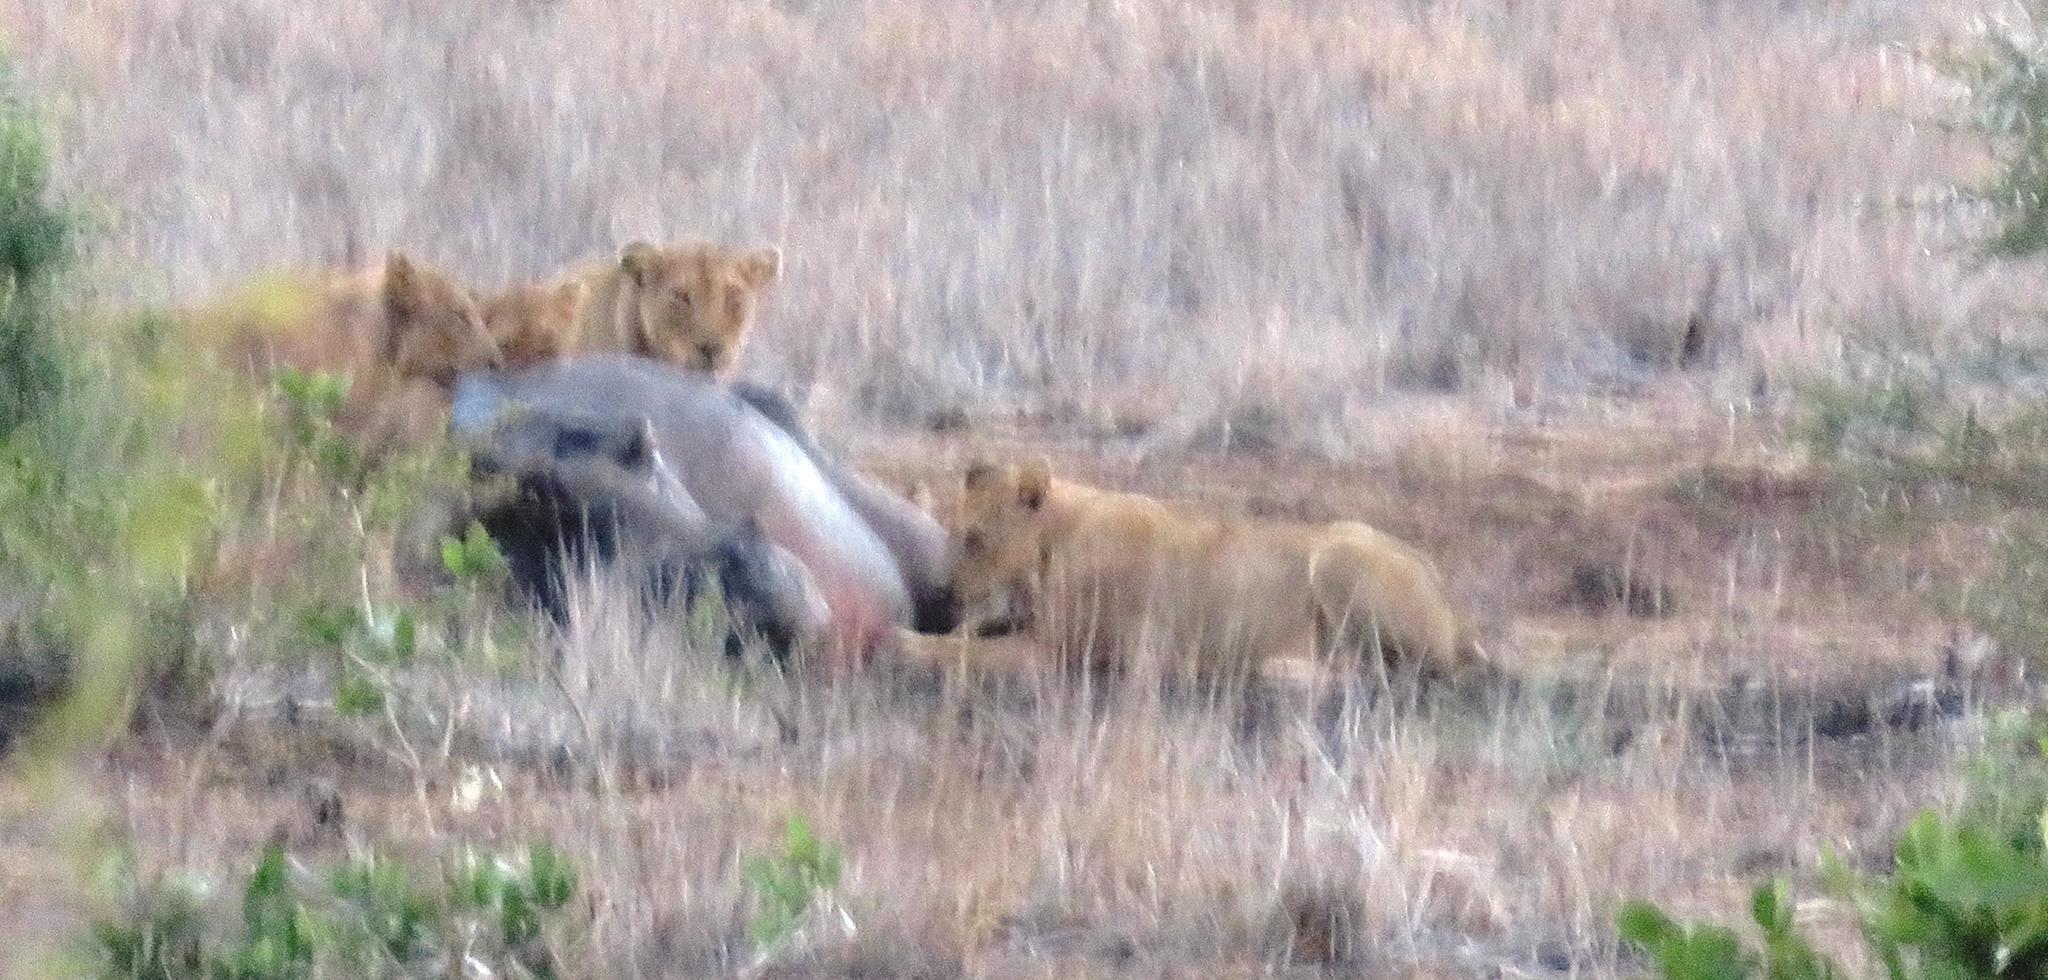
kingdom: Animalia
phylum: Chordata
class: Mammalia
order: Carnivora
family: Felidae
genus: Panthera
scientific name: Panthera leo
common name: Lion
